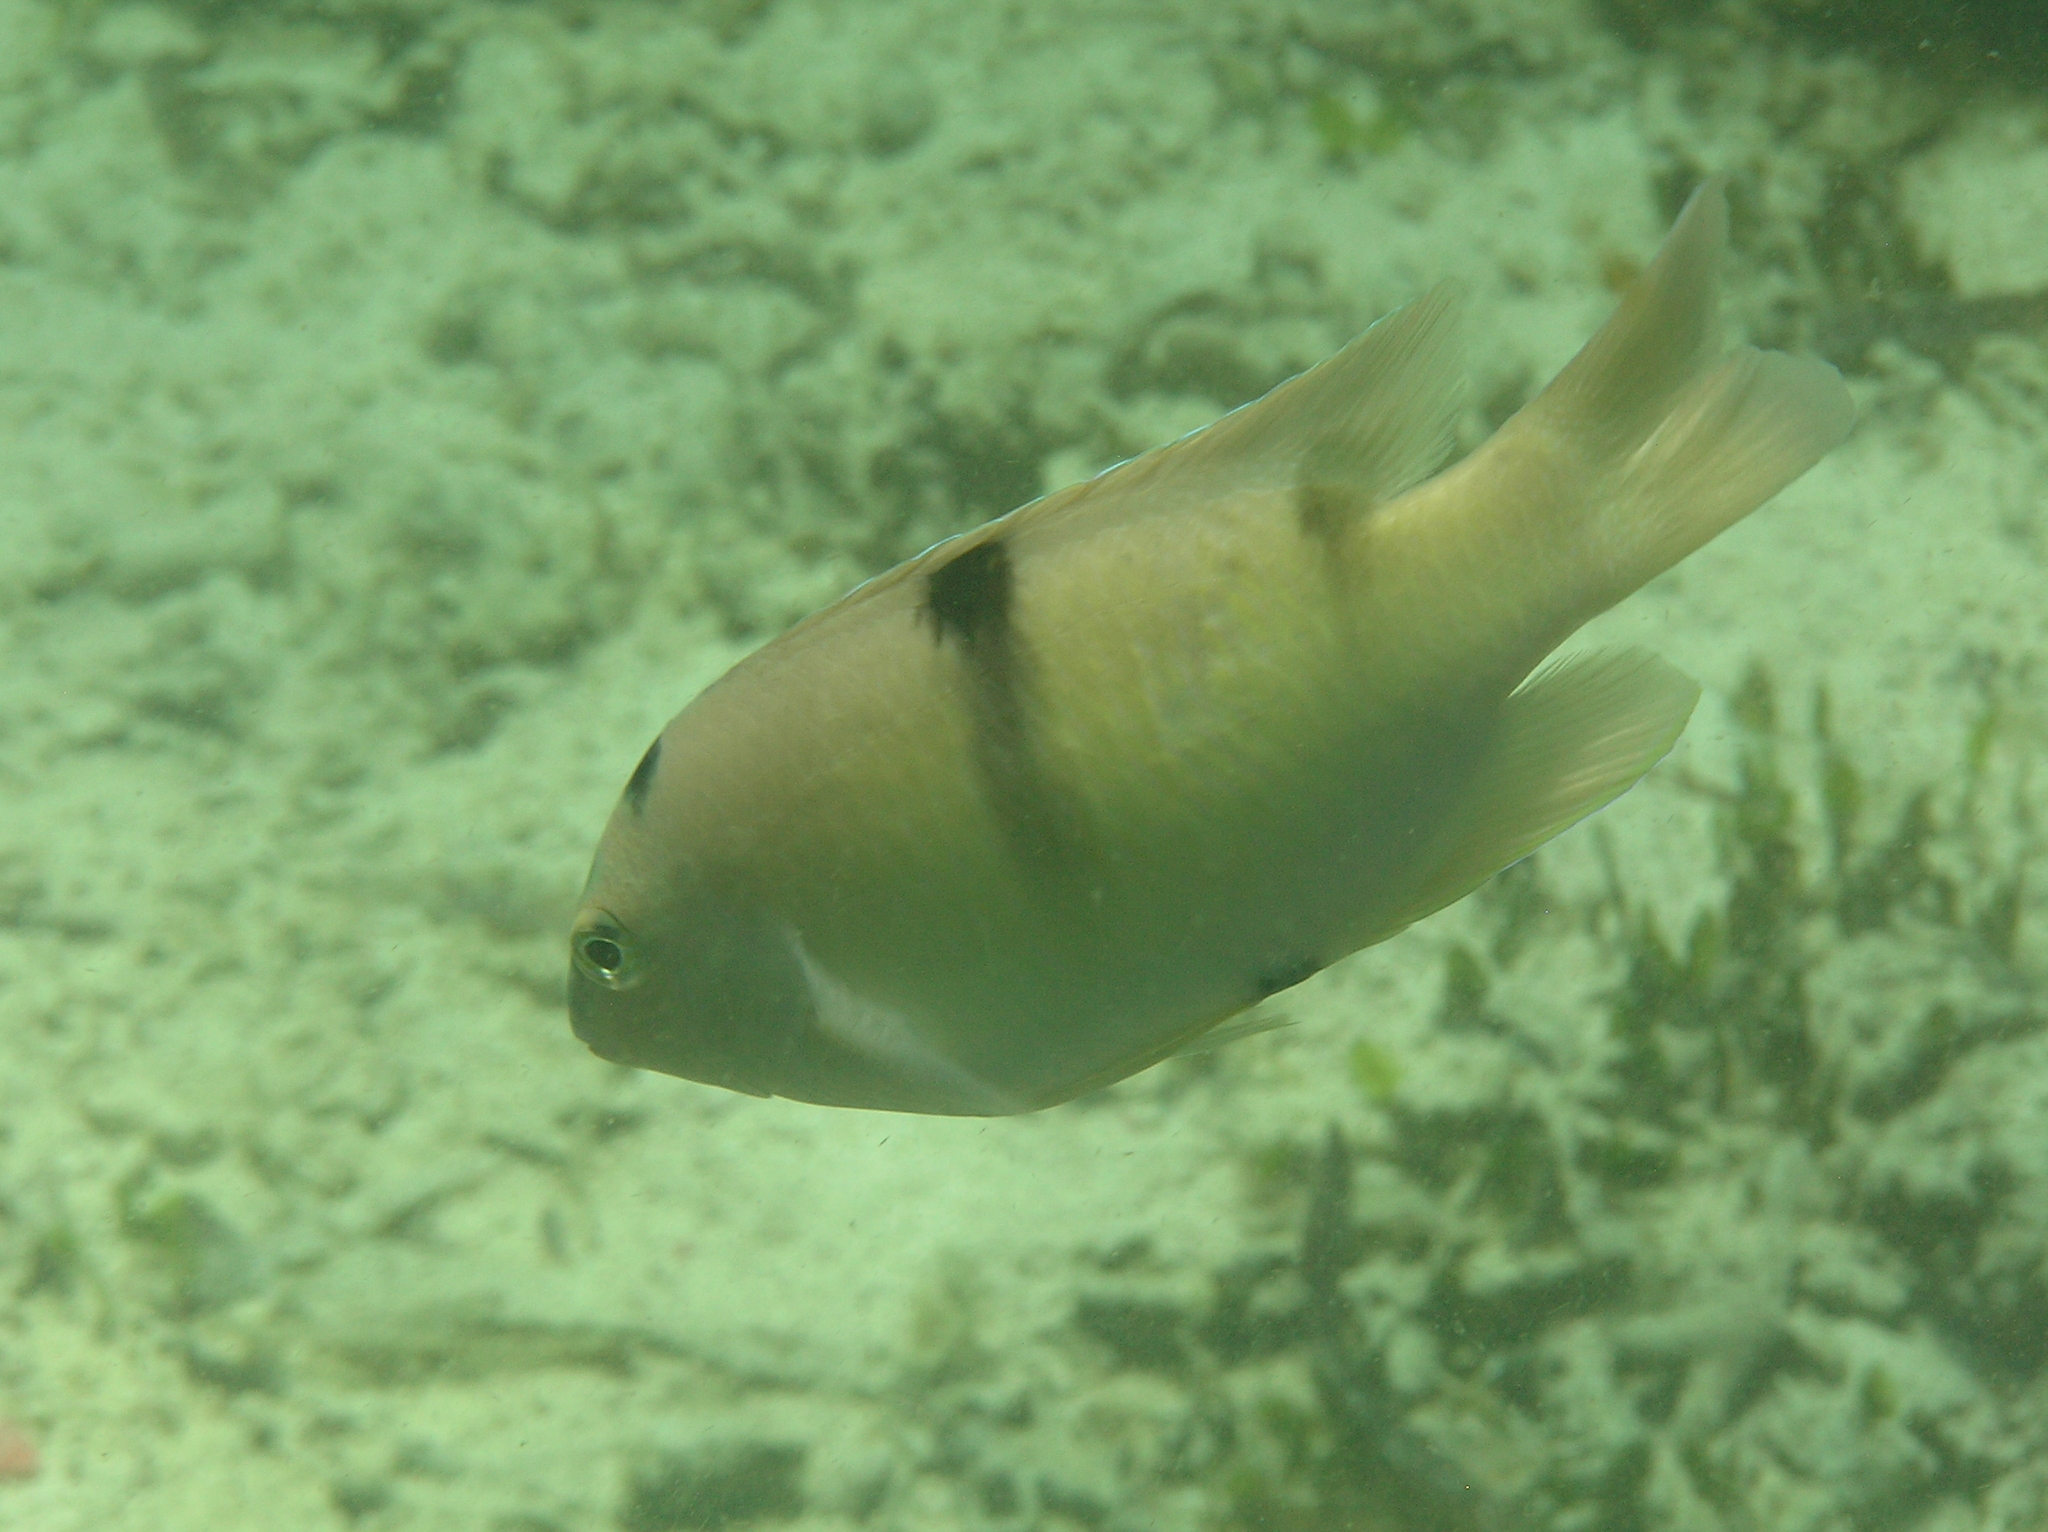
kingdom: Animalia
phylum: Chordata
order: Perciformes
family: Pomacentridae
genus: Dischistodus
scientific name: Dischistodus perspicillatus
